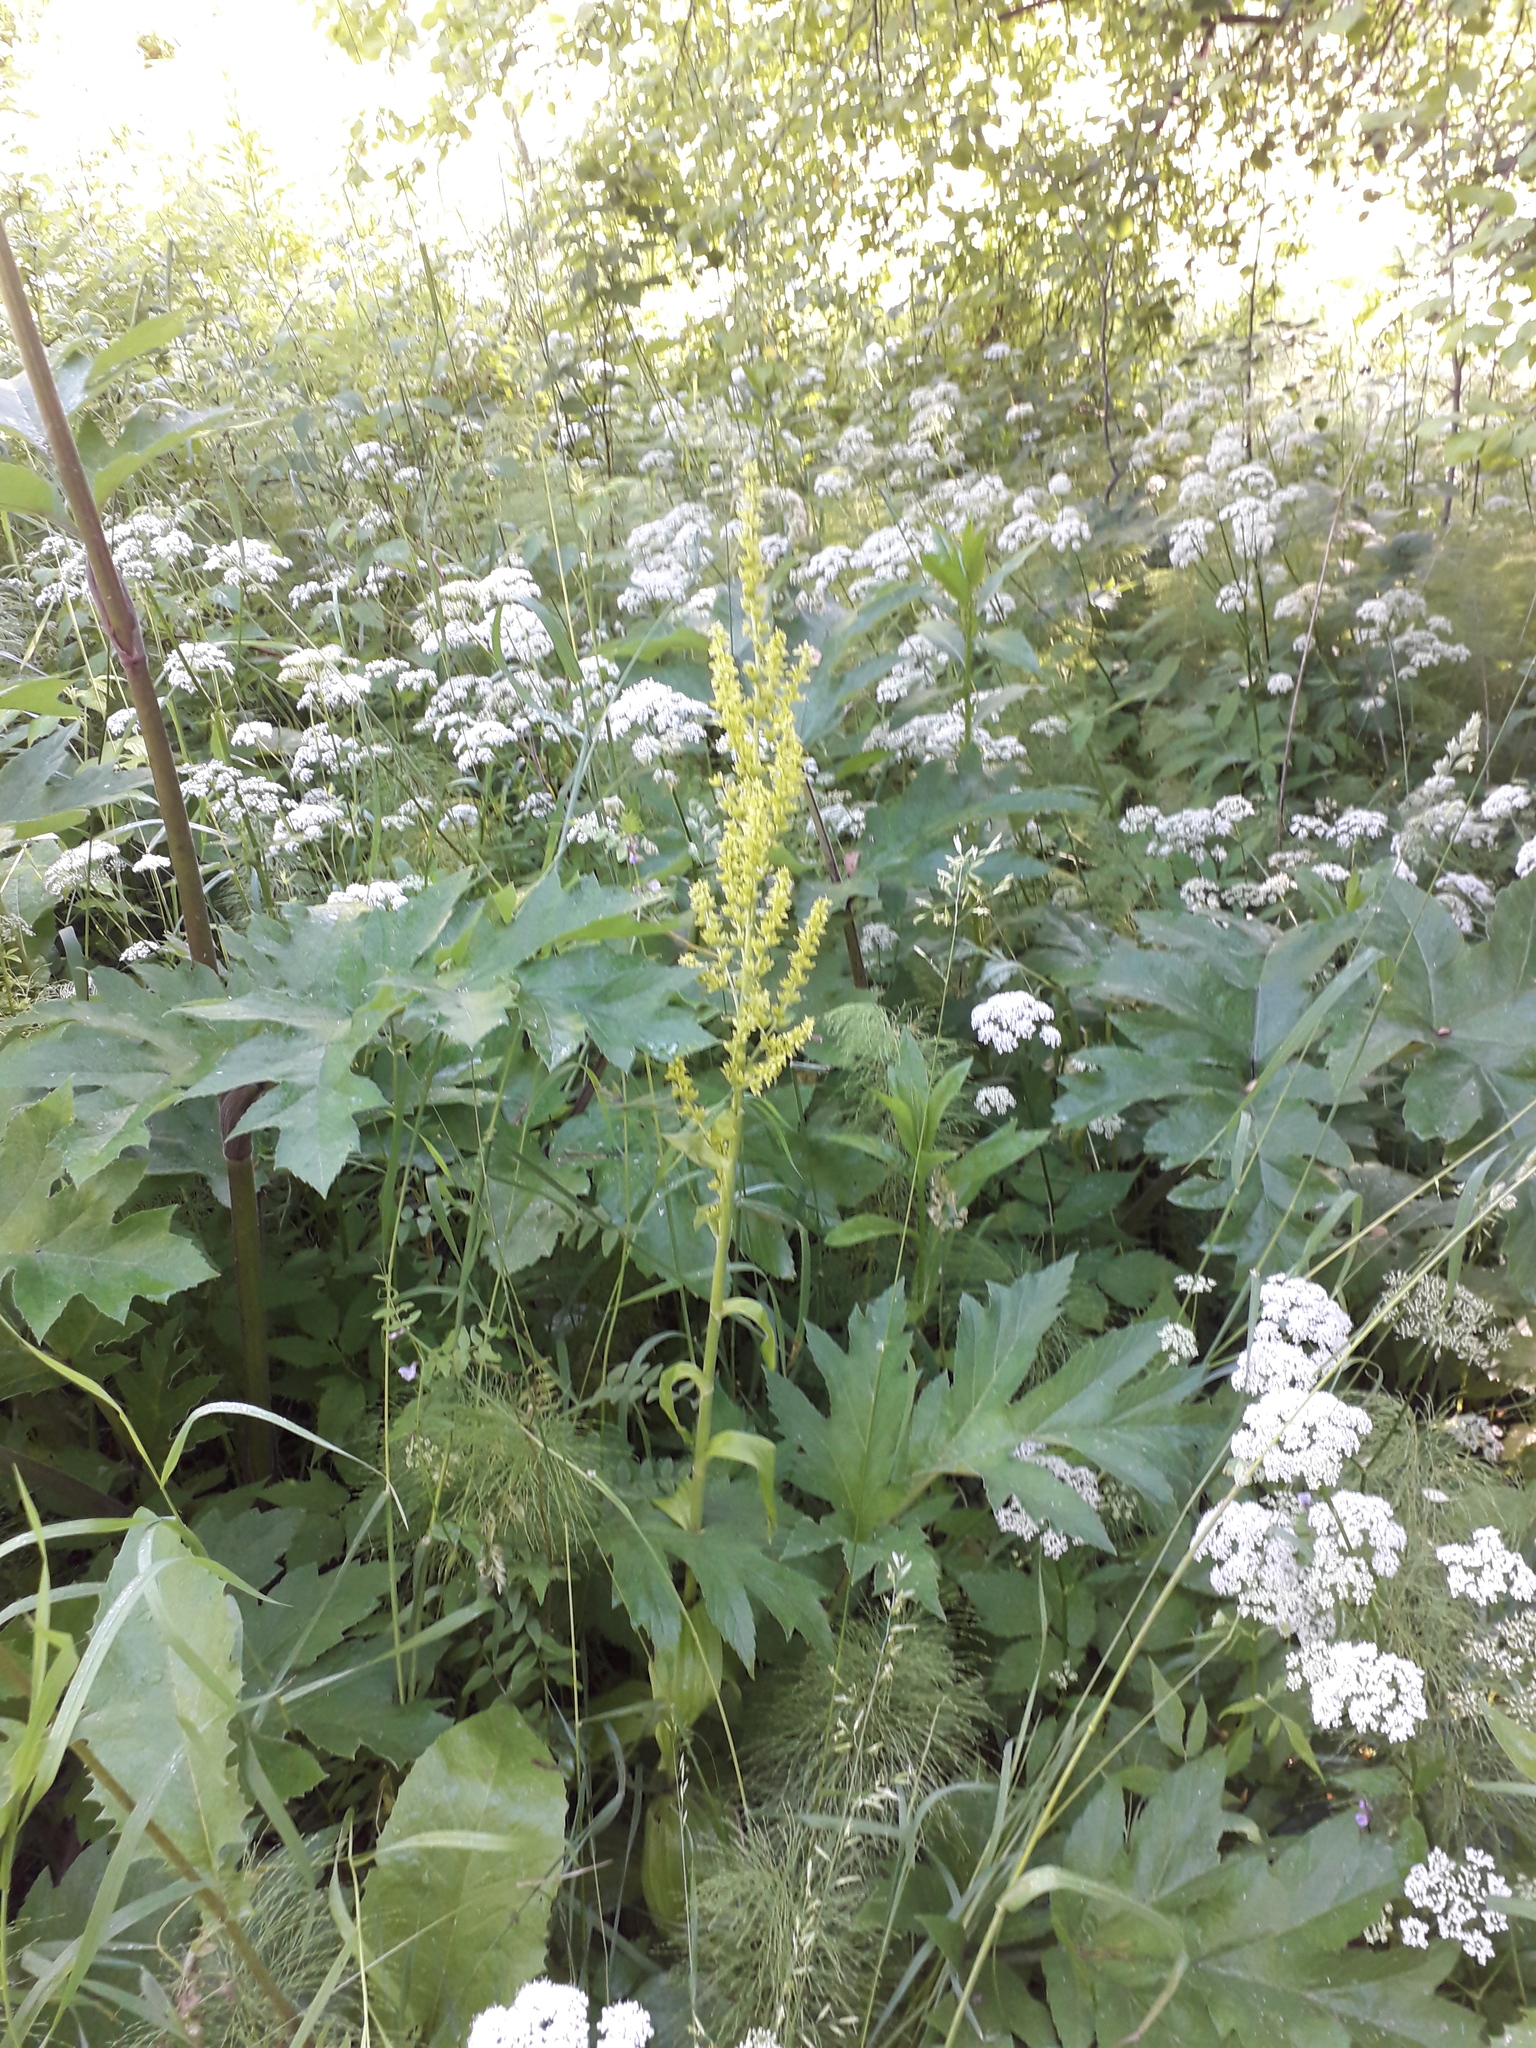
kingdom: Plantae
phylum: Tracheophyta
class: Liliopsida
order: Liliales
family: Melanthiaceae
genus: Veratrum
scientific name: Veratrum lobelianum
